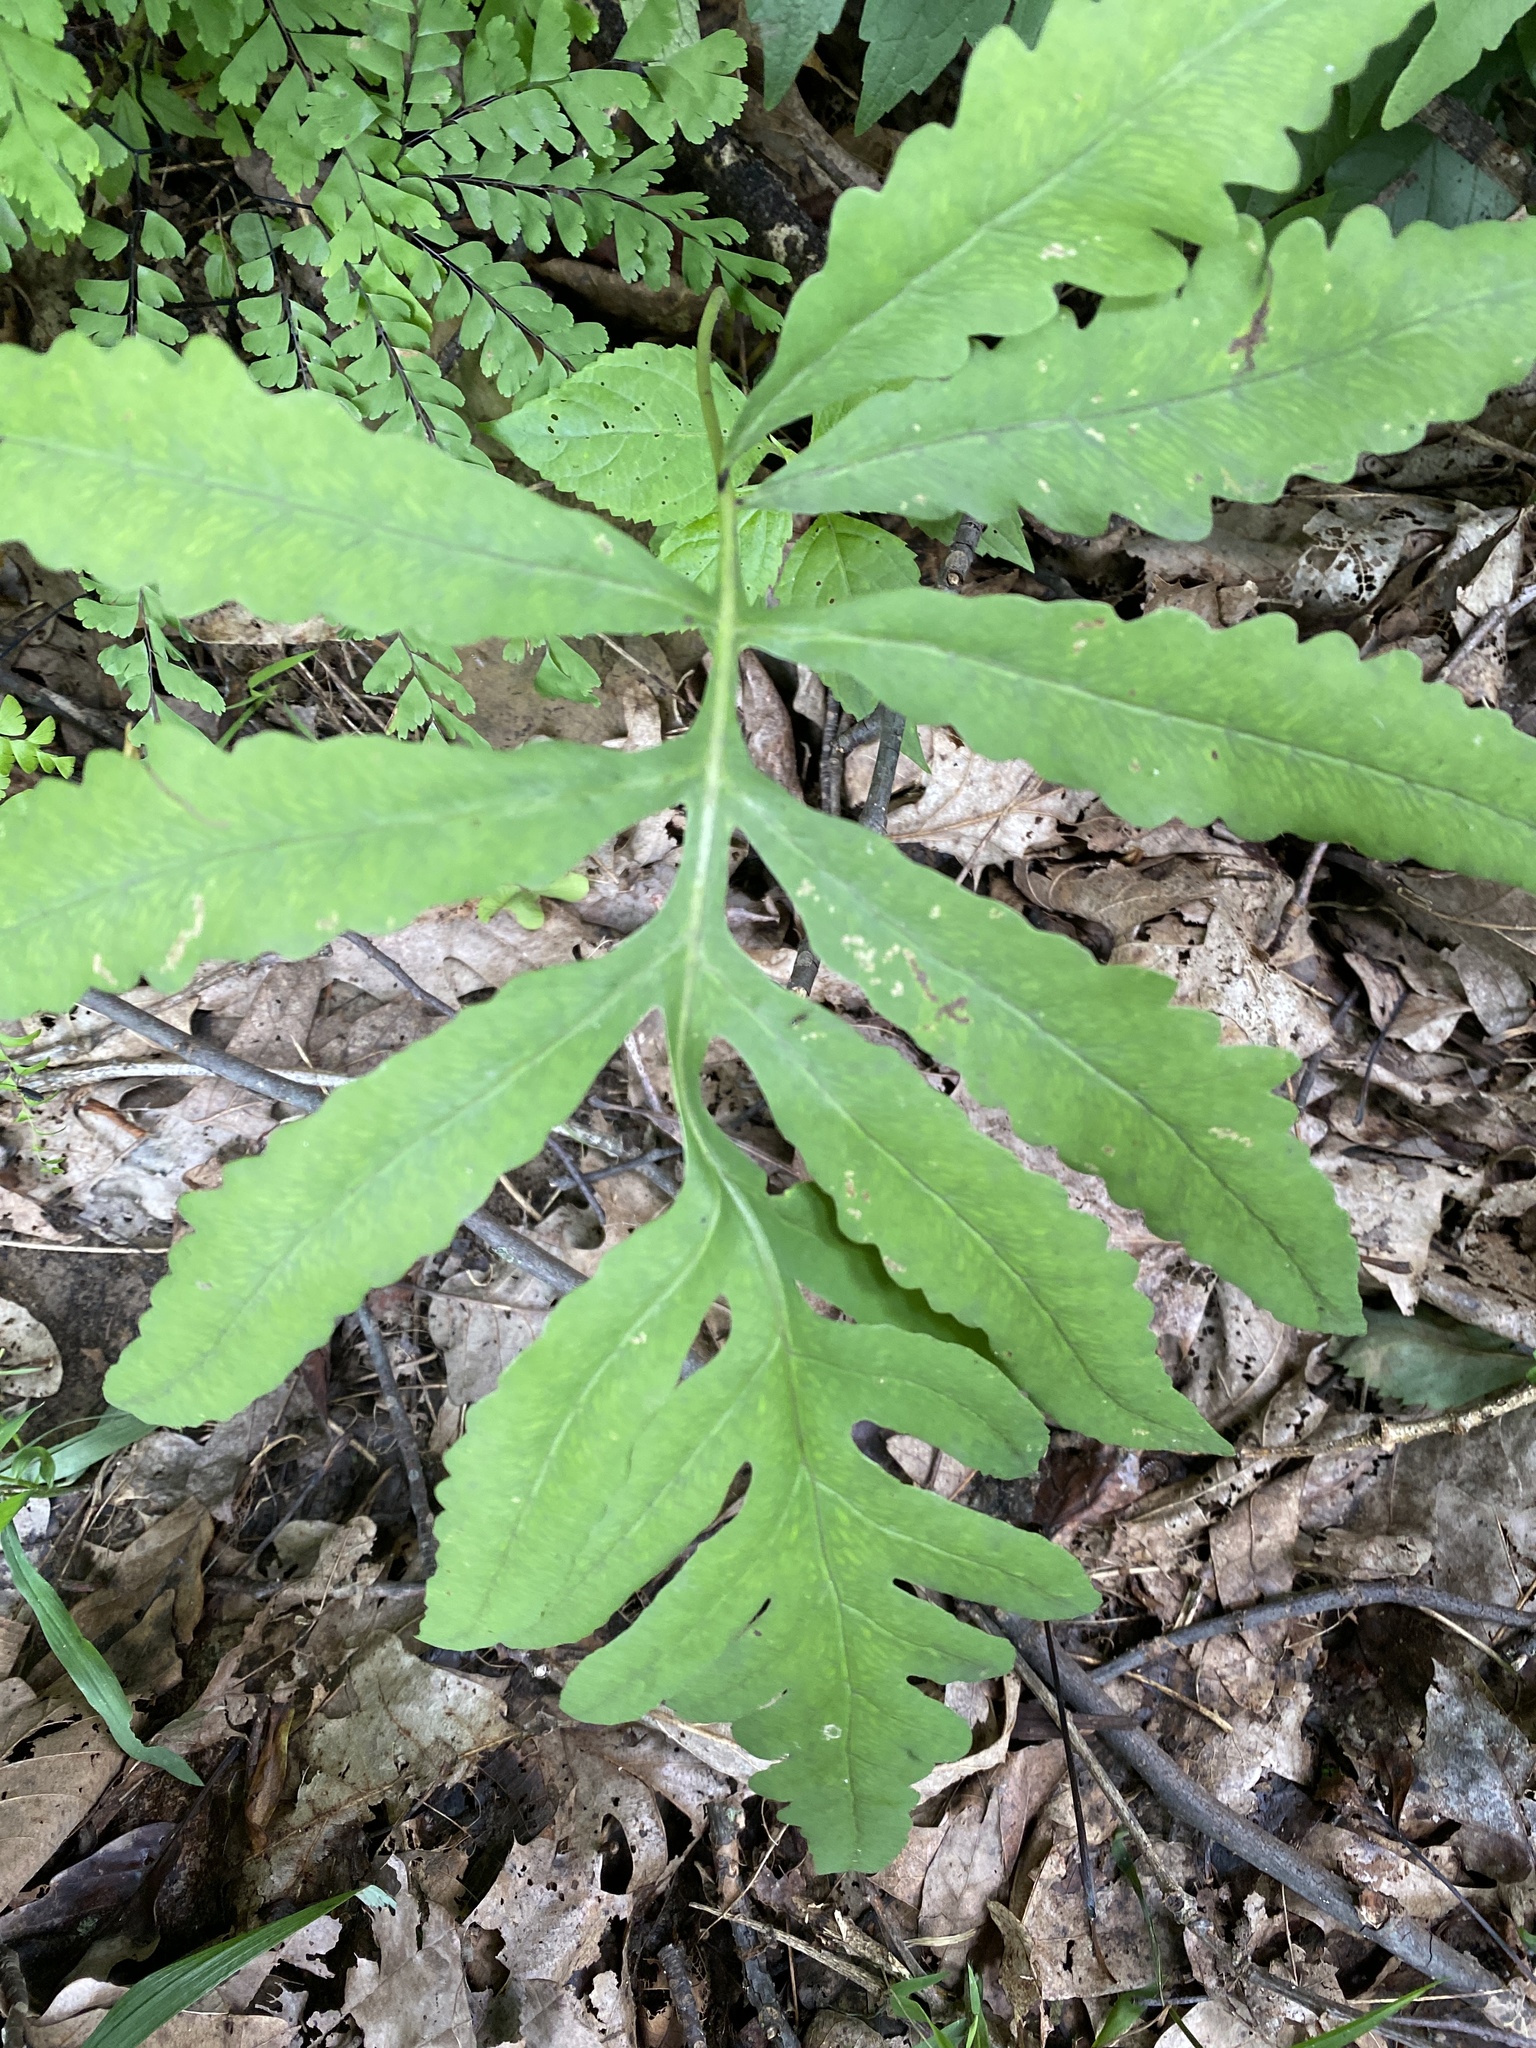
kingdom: Plantae
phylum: Tracheophyta
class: Polypodiopsida
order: Polypodiales
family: Onocleaceae
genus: Onoclea
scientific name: Onoclea sensibilis
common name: Sensitive fern
